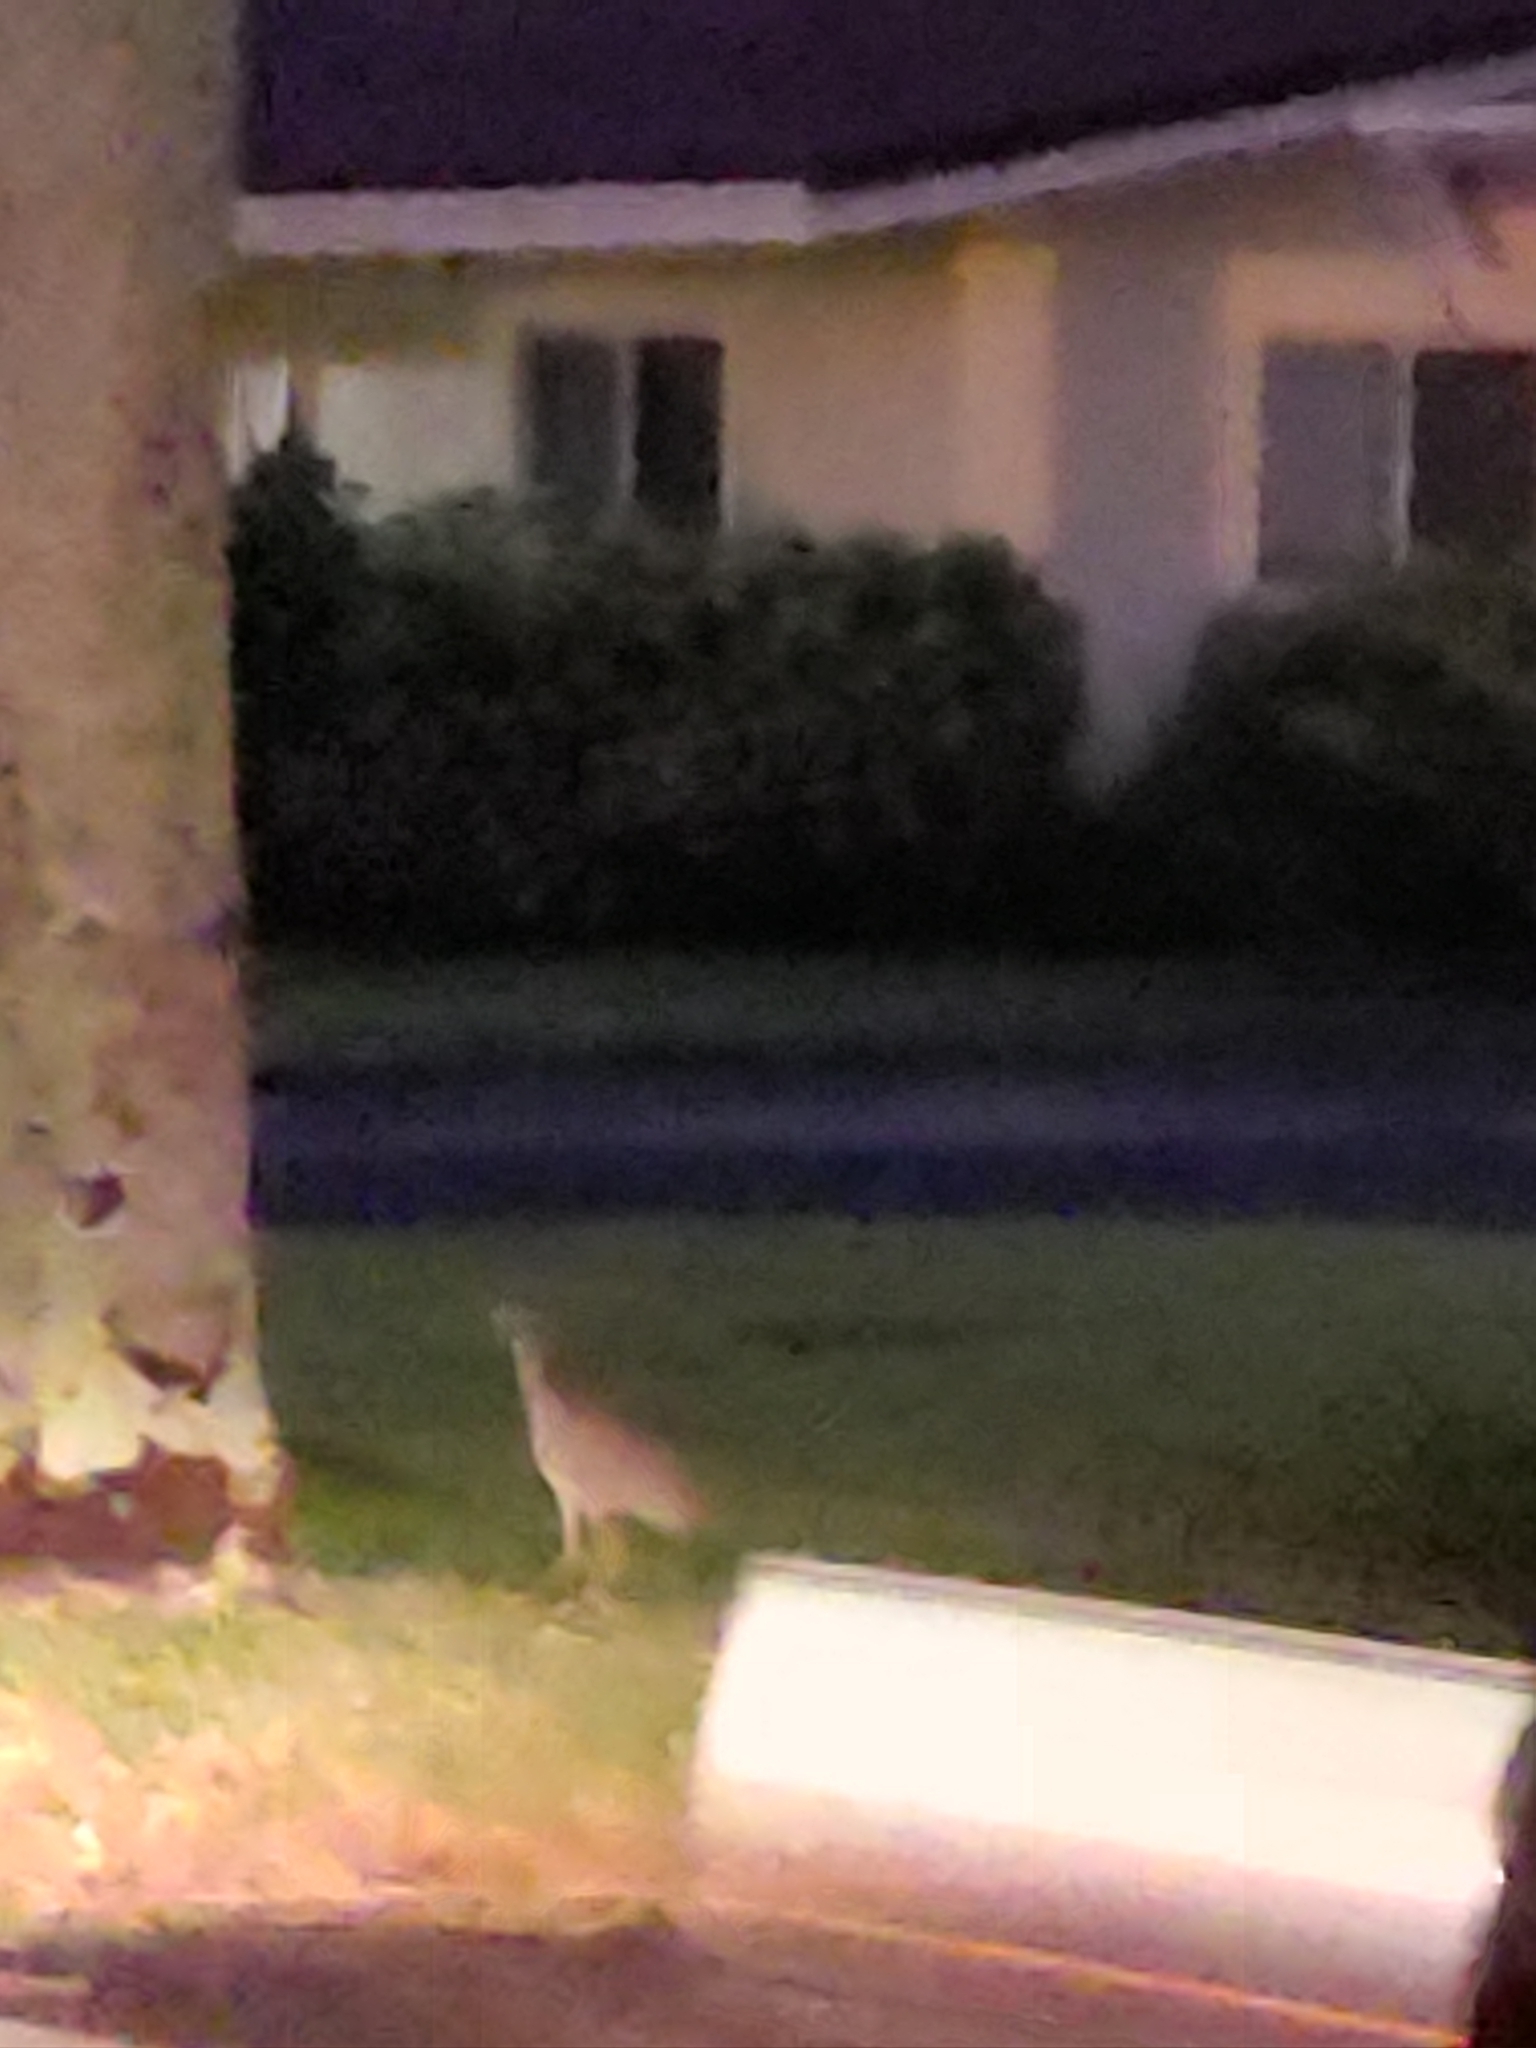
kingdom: Animalia
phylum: Chordata
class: Aves
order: Pelecaniformes
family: Ardeidae
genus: Nyctanassa
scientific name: Nyctanassa violacea
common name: Yellow-crowned night heron
